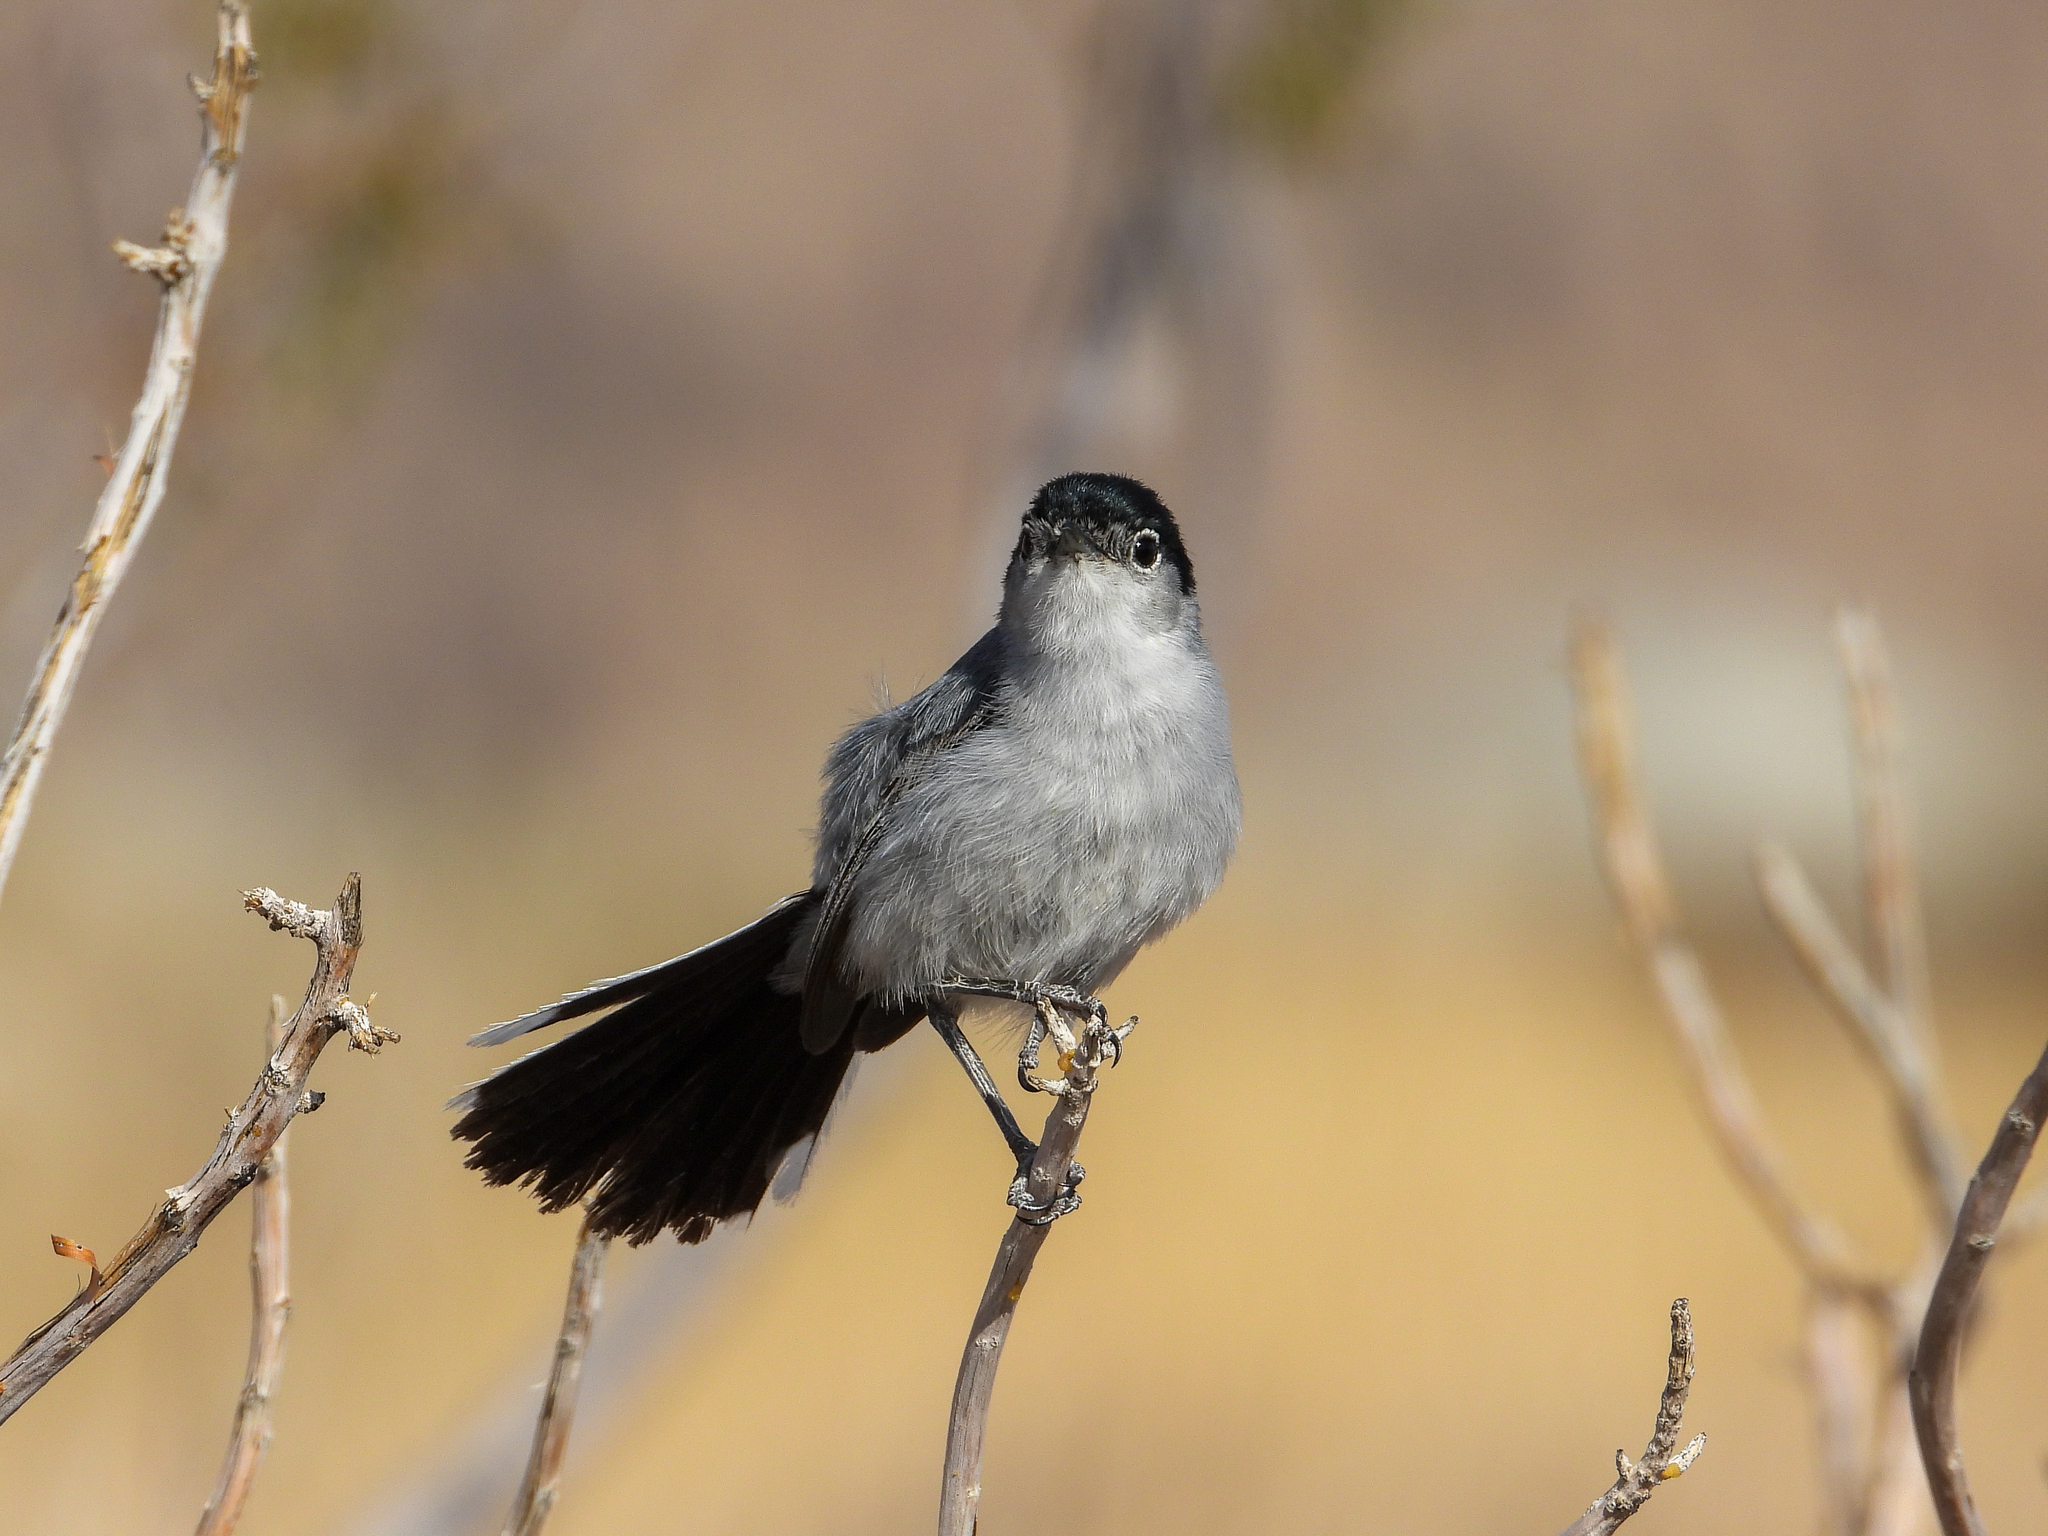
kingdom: Animalia
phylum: Chordata
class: Aves
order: Passeriformes
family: Polioptilidae
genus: Polioptila
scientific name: Polioptila melanura
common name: Black-tailed gnatcatcher
